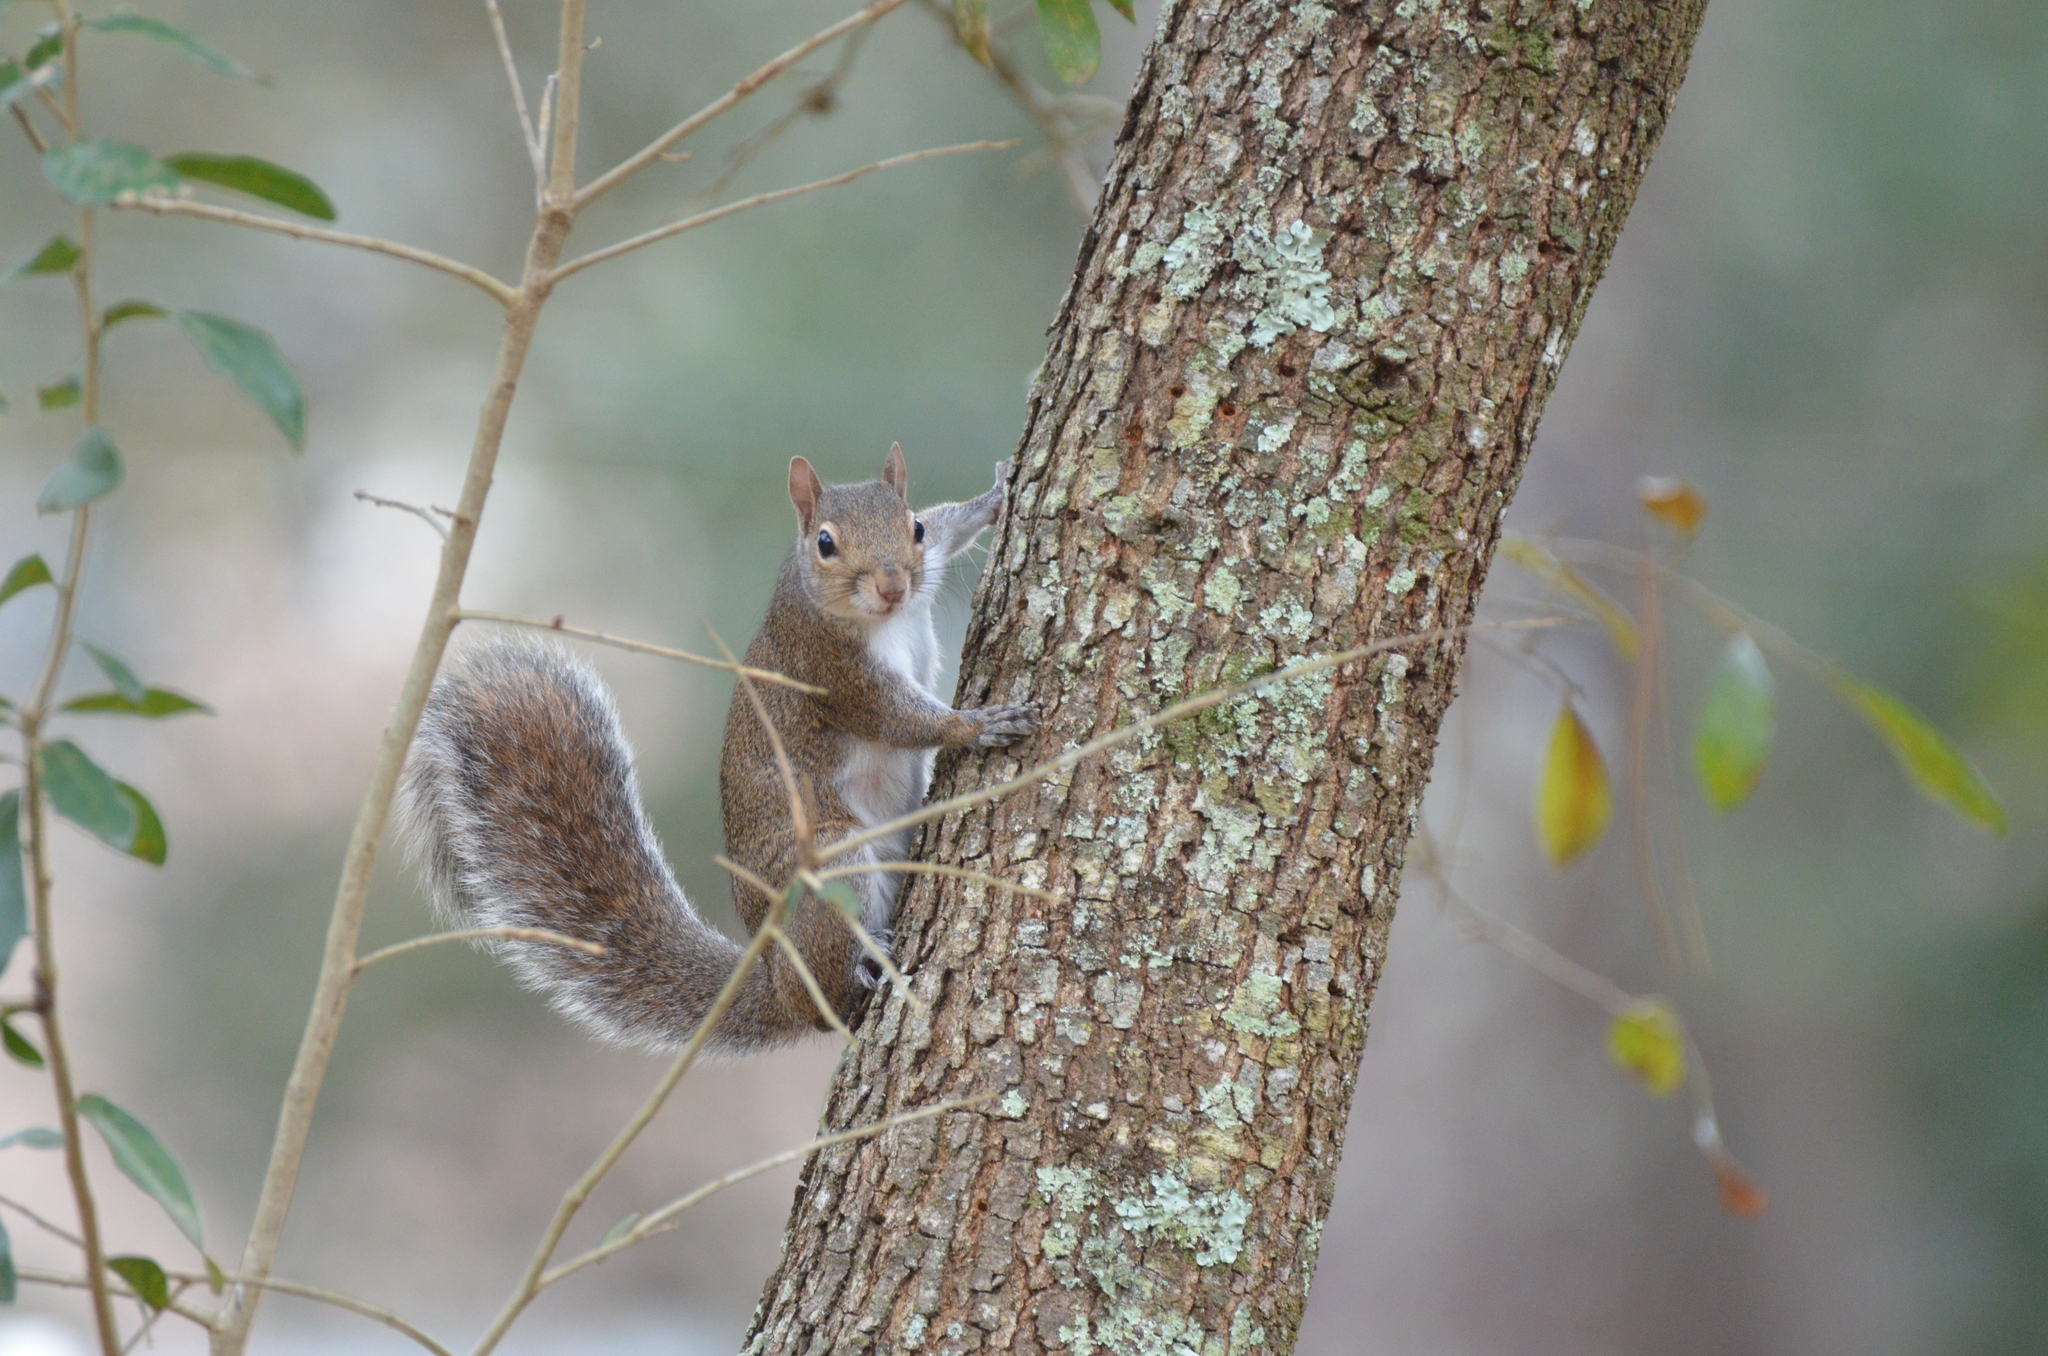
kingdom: Animalia
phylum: Chordata
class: Mammalia
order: Rodentia
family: Sciuridae
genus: Sciurus
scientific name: Sciurus carolinensis
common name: Eastern gray squirrel
